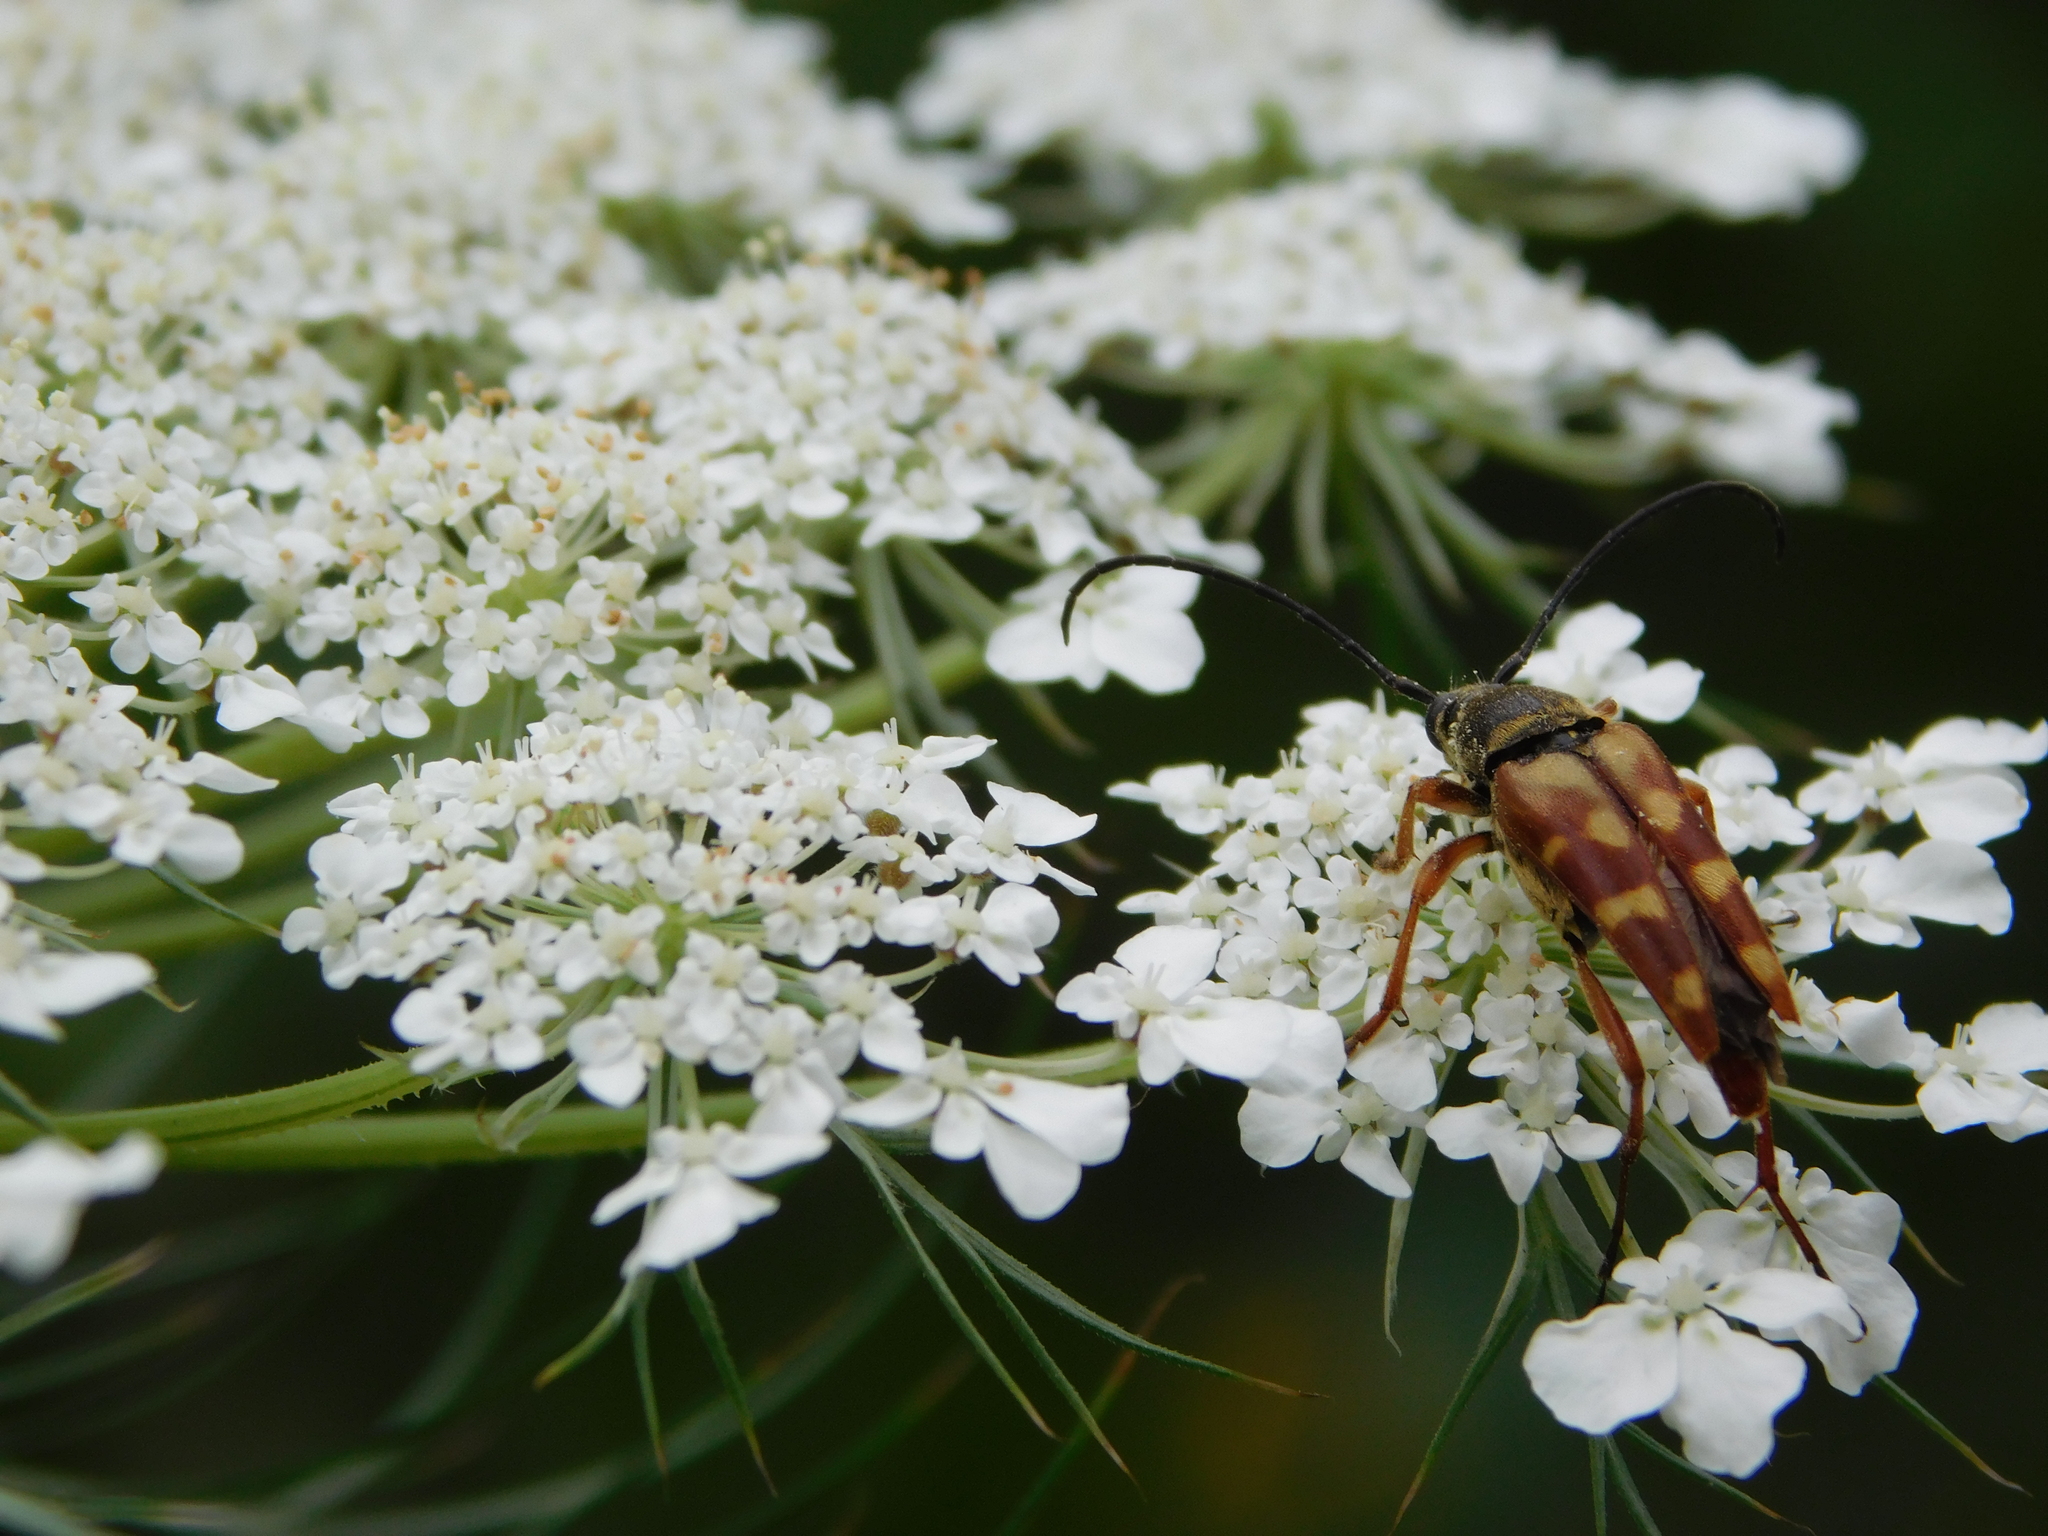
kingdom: Animalia
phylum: Arthropoda
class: Insecta
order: Coleoptera
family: Cerambycidae
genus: Typocerus
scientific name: Typocerus velutinus
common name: Banded longhorn beetle
